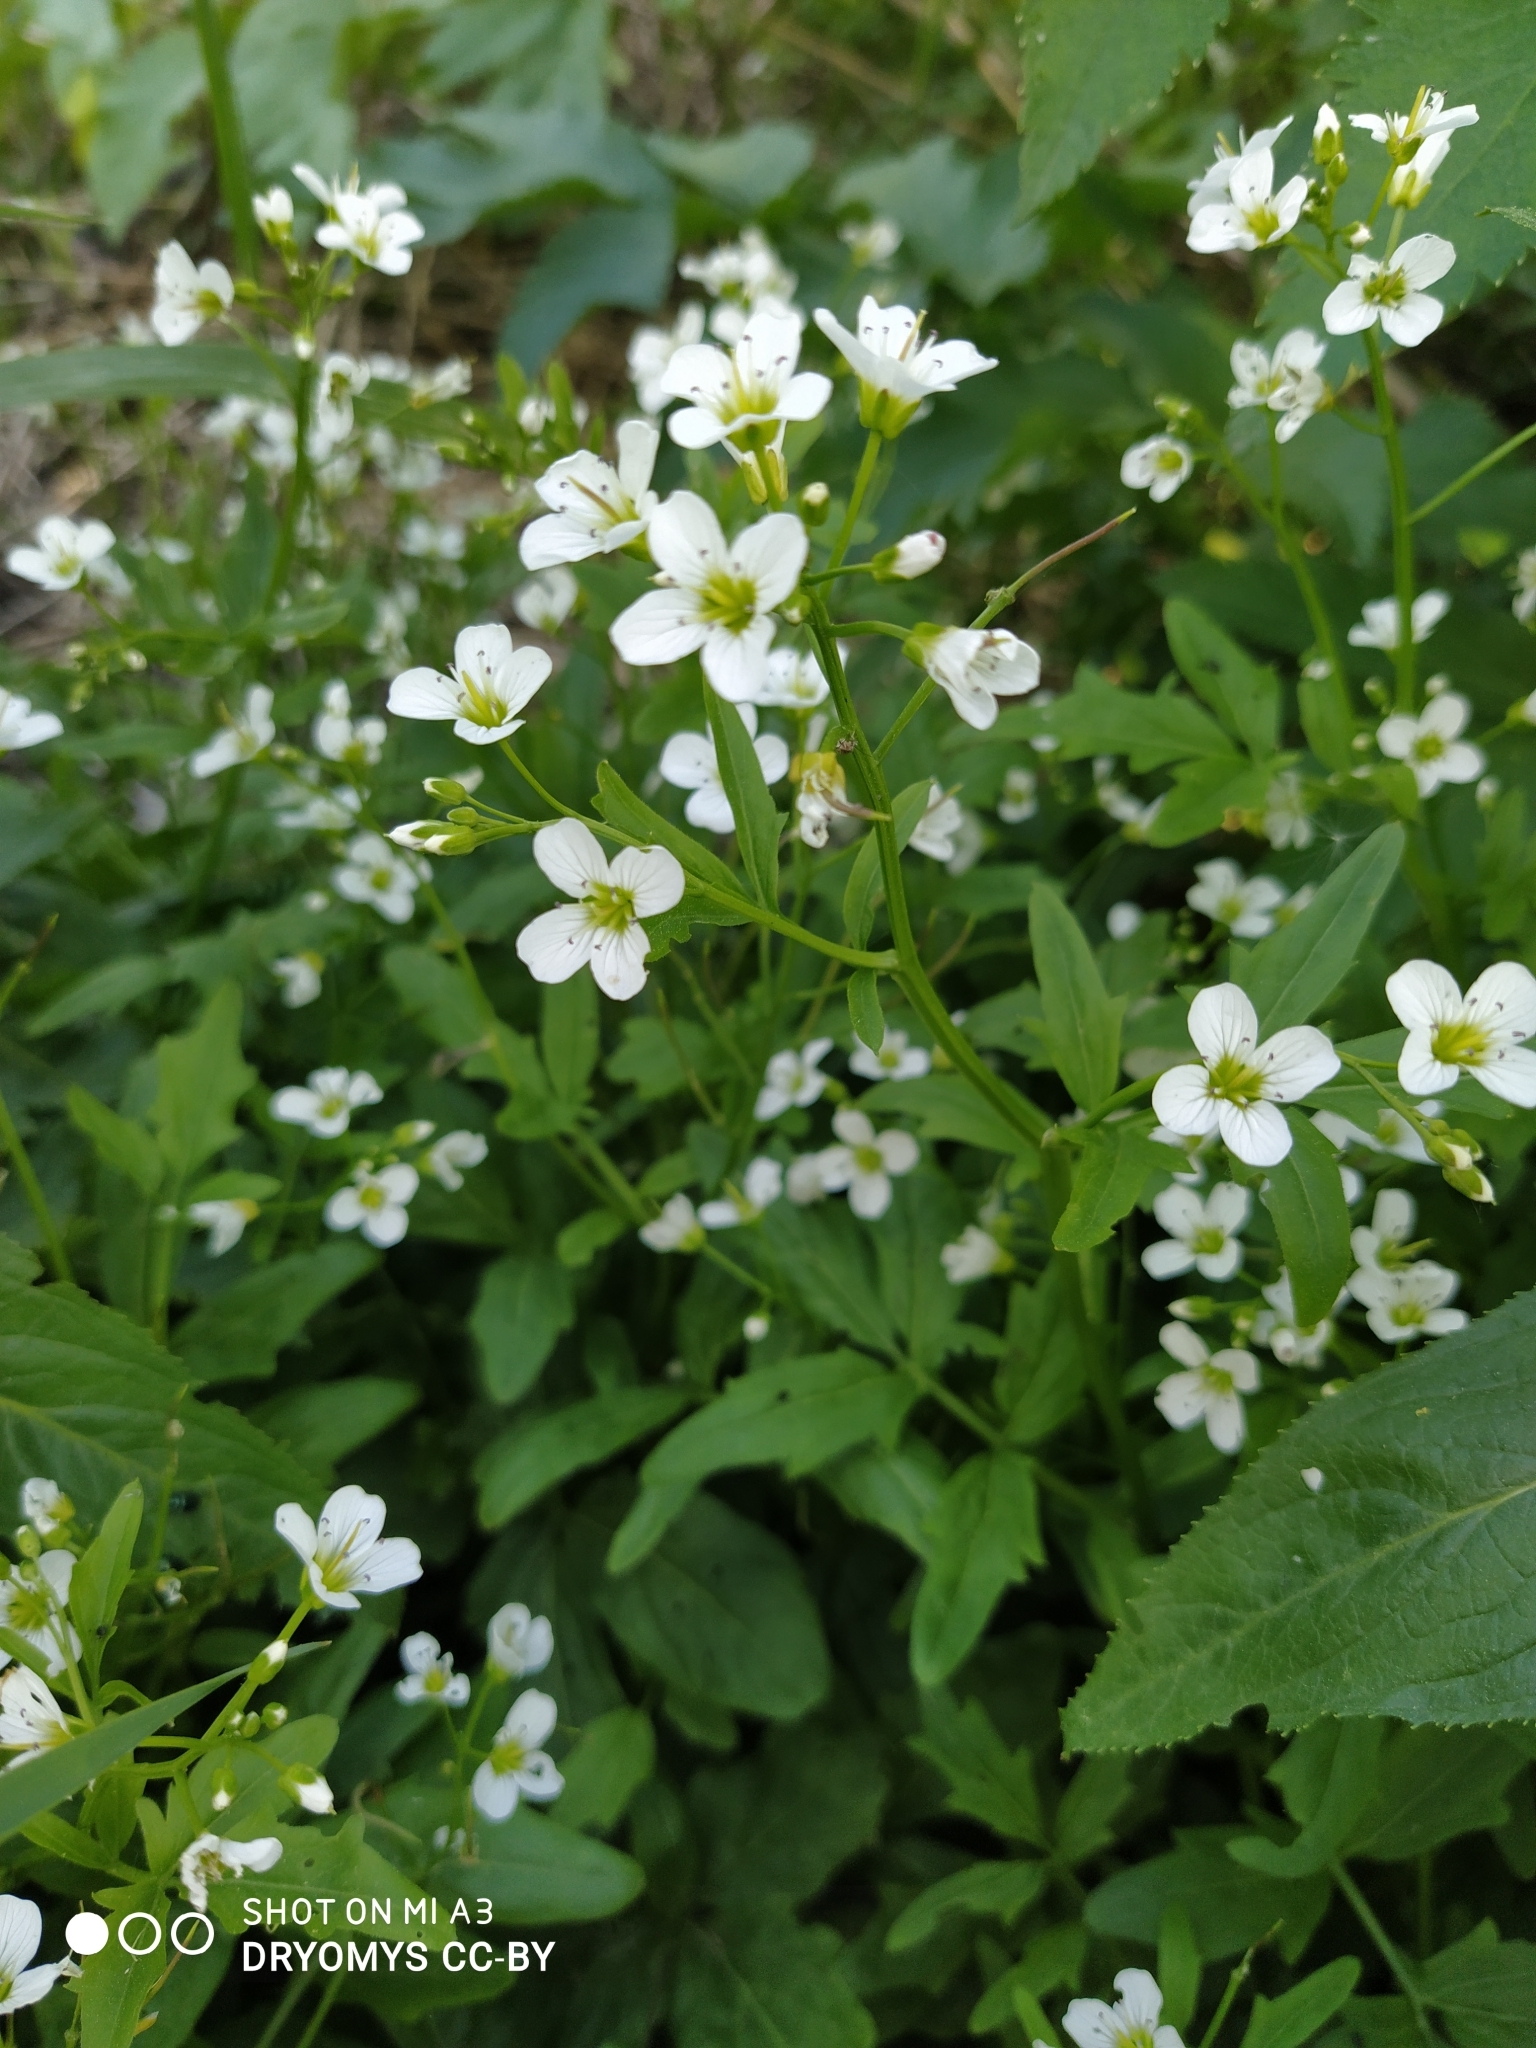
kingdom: Plantae
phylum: Tracheophyta
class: Magnoliopsida
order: Brassicales
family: Brassicaceae
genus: Cardamine
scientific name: Cardamine amara
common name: Large bitter-cress
